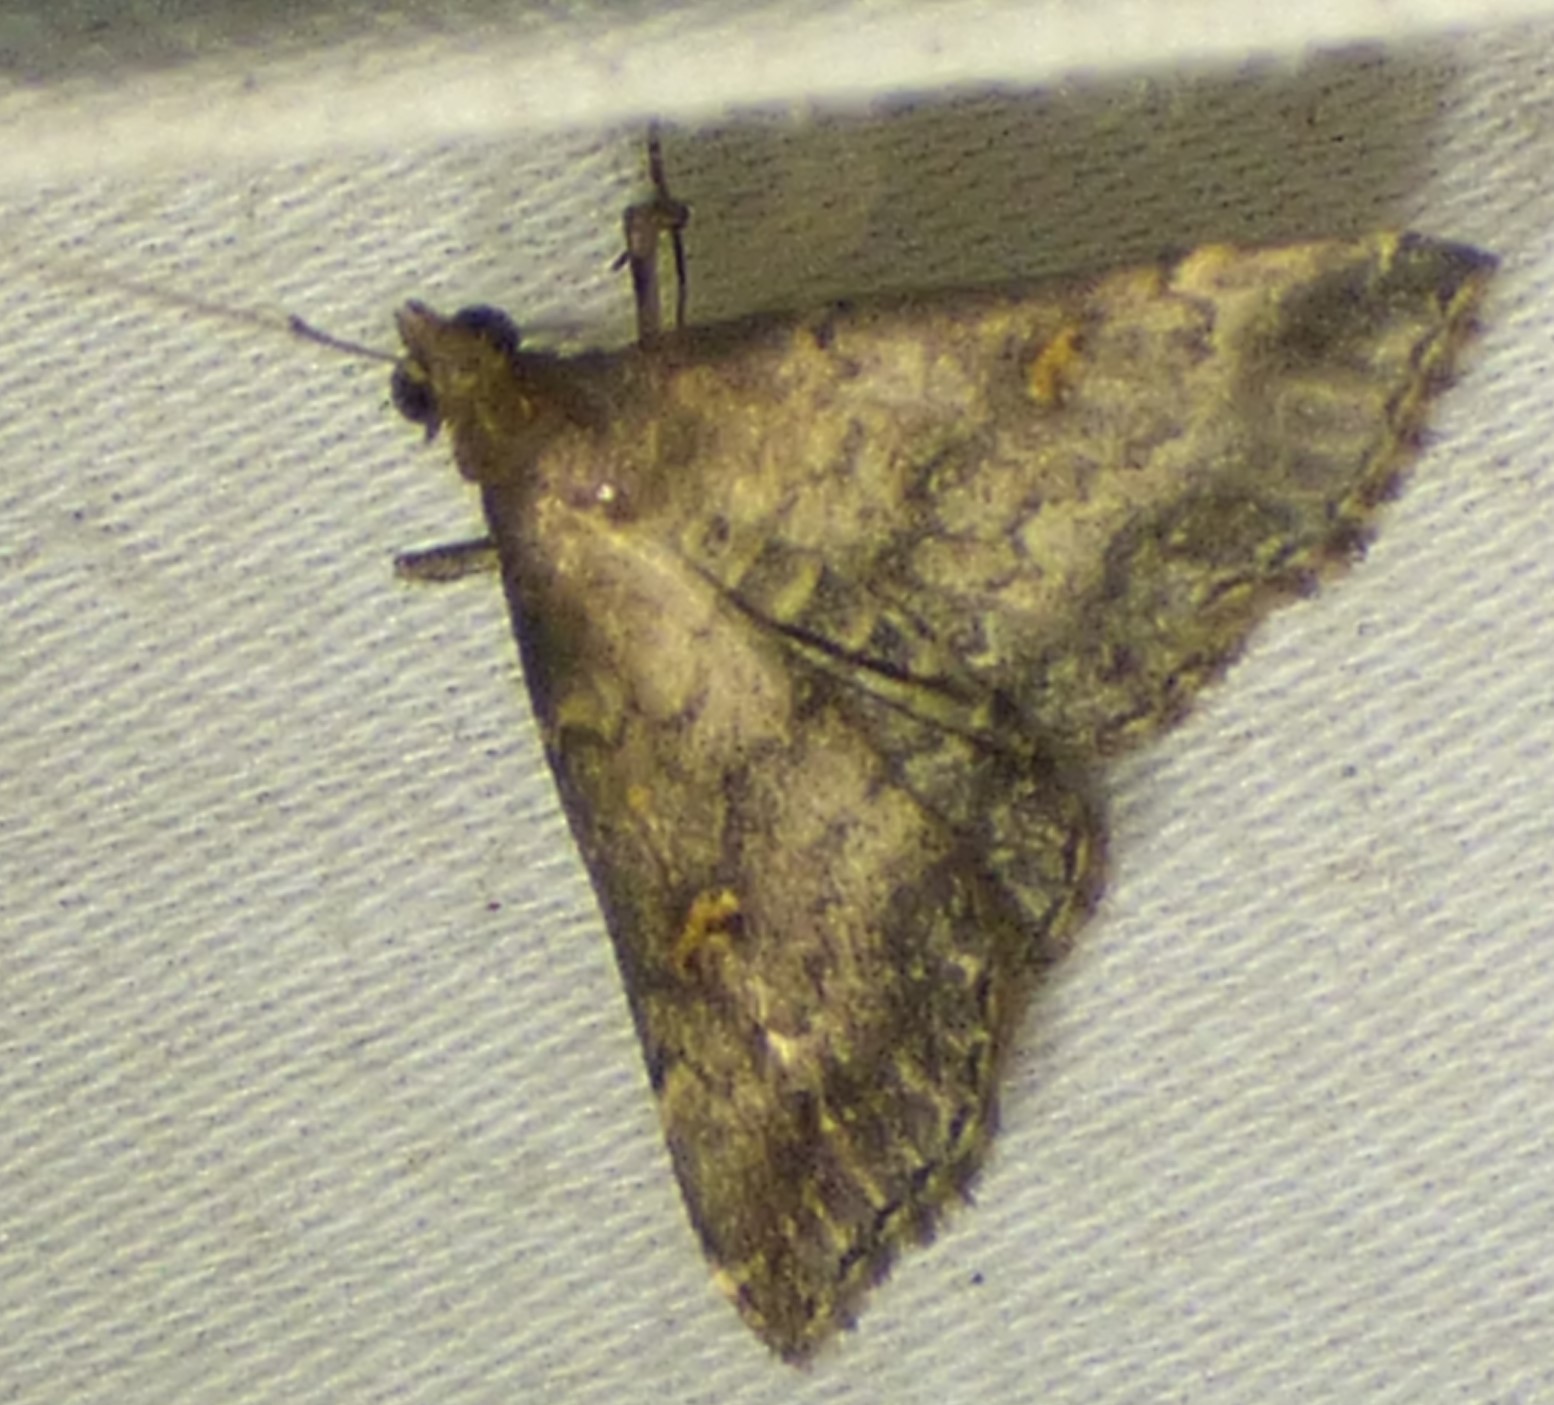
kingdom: Animalia
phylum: Arthropoda
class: Insecta
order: Lepidoptera
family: Erebidae
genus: Tetanolita
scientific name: Tetanolita floridana
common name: Florida tetanolita moth
